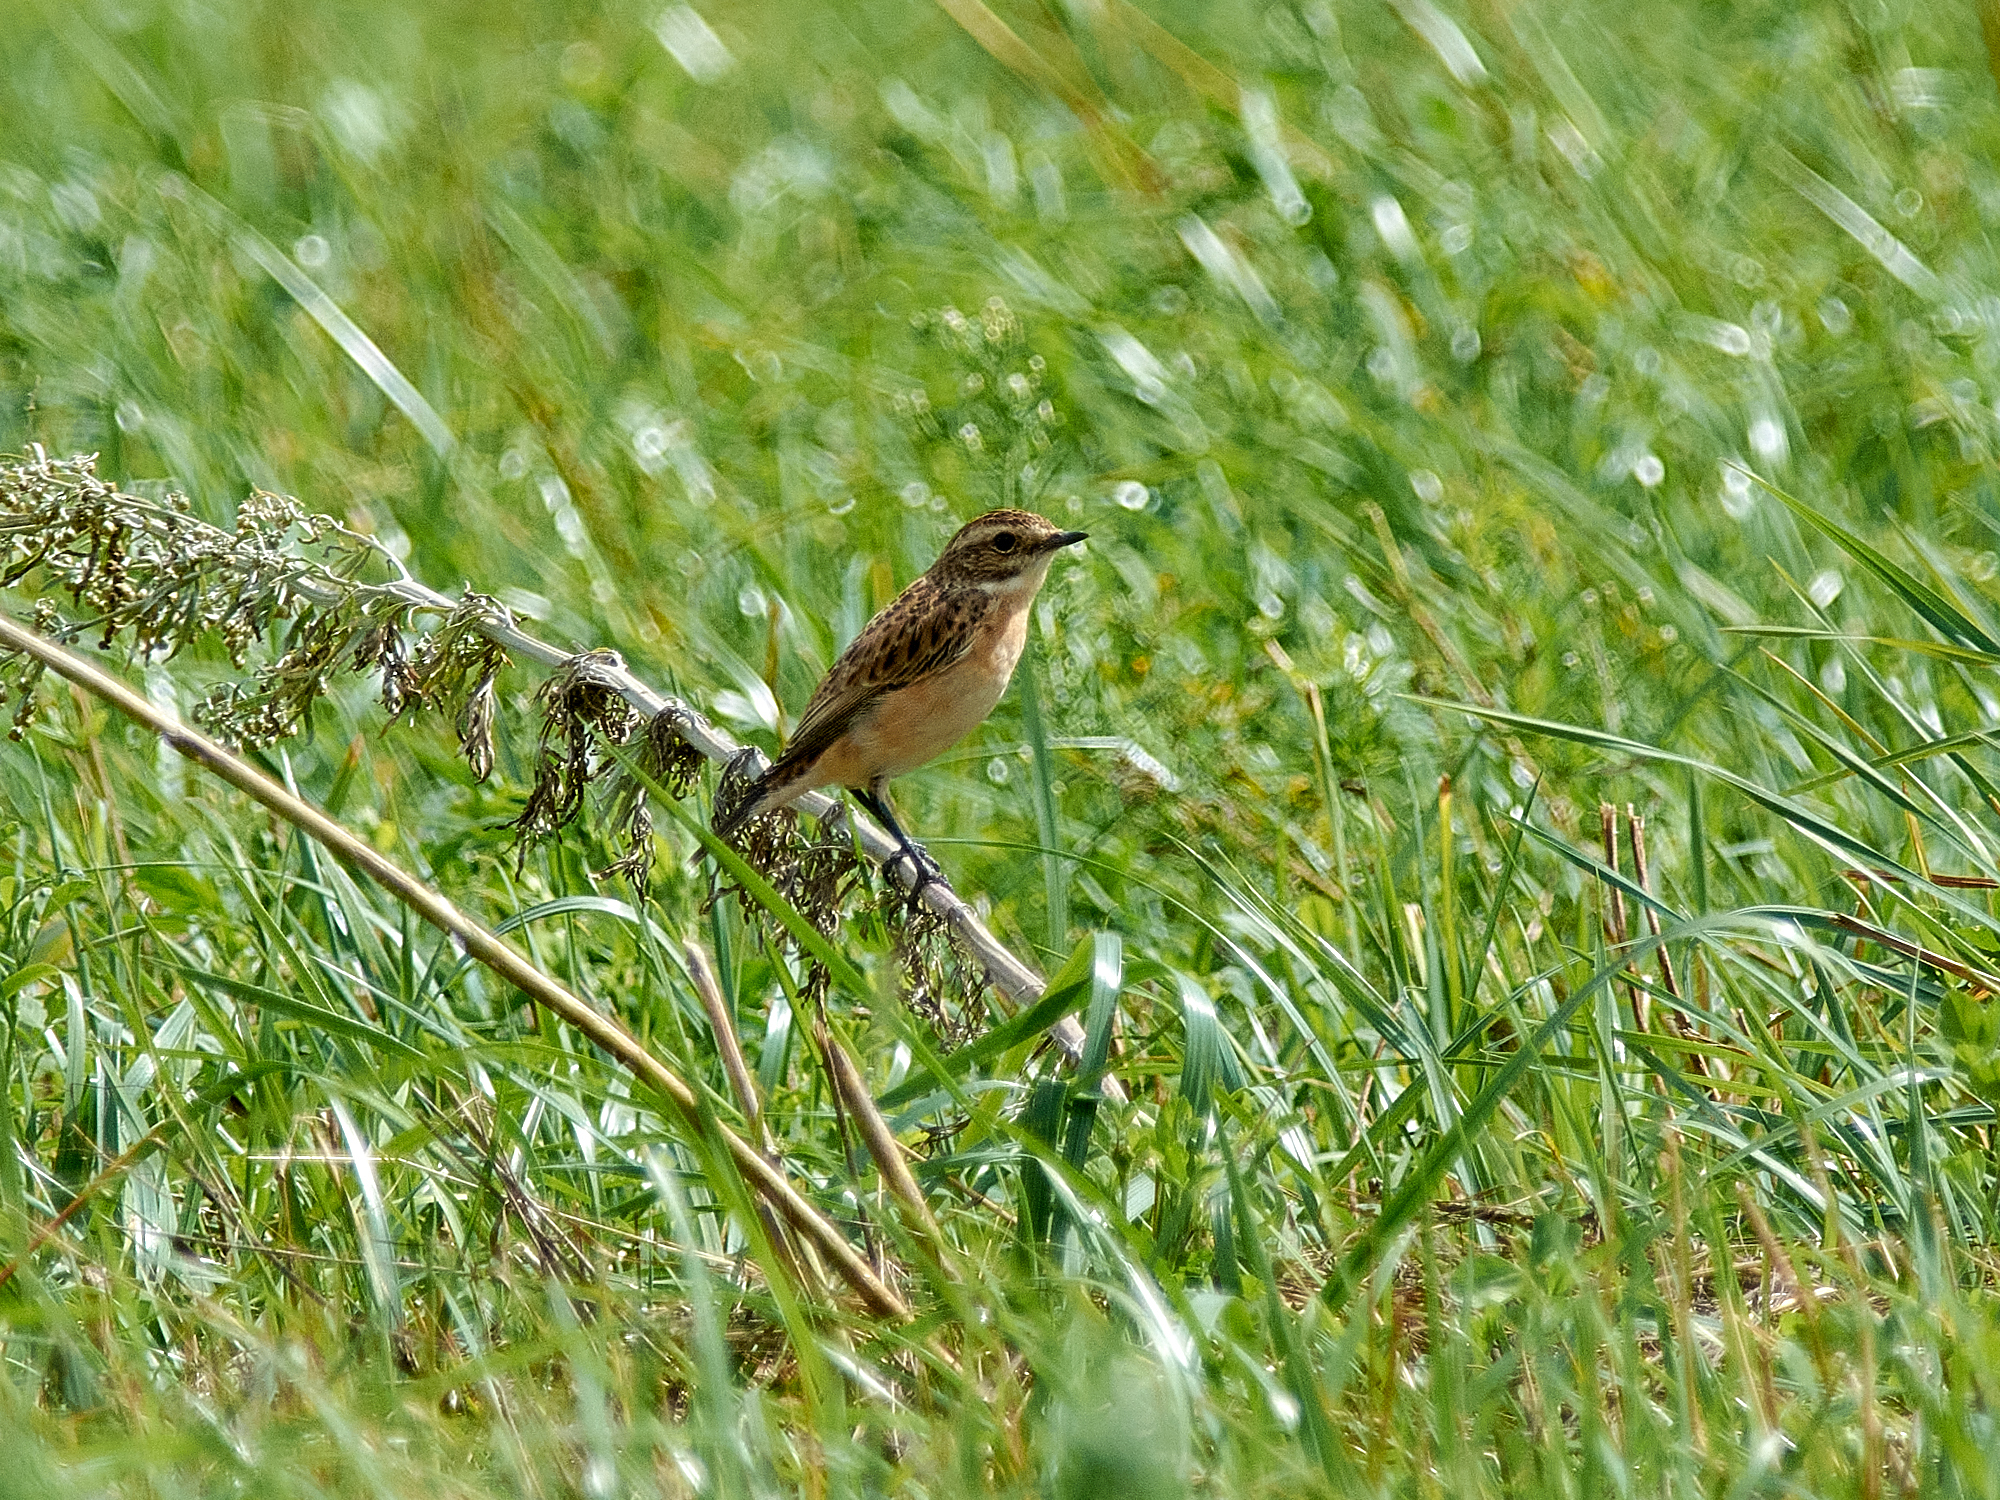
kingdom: Animalia
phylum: Chordata
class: Aves
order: Passeriformes
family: Muscicapidae
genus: Saxicola
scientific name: Saxicola rubetra
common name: Whinchat
